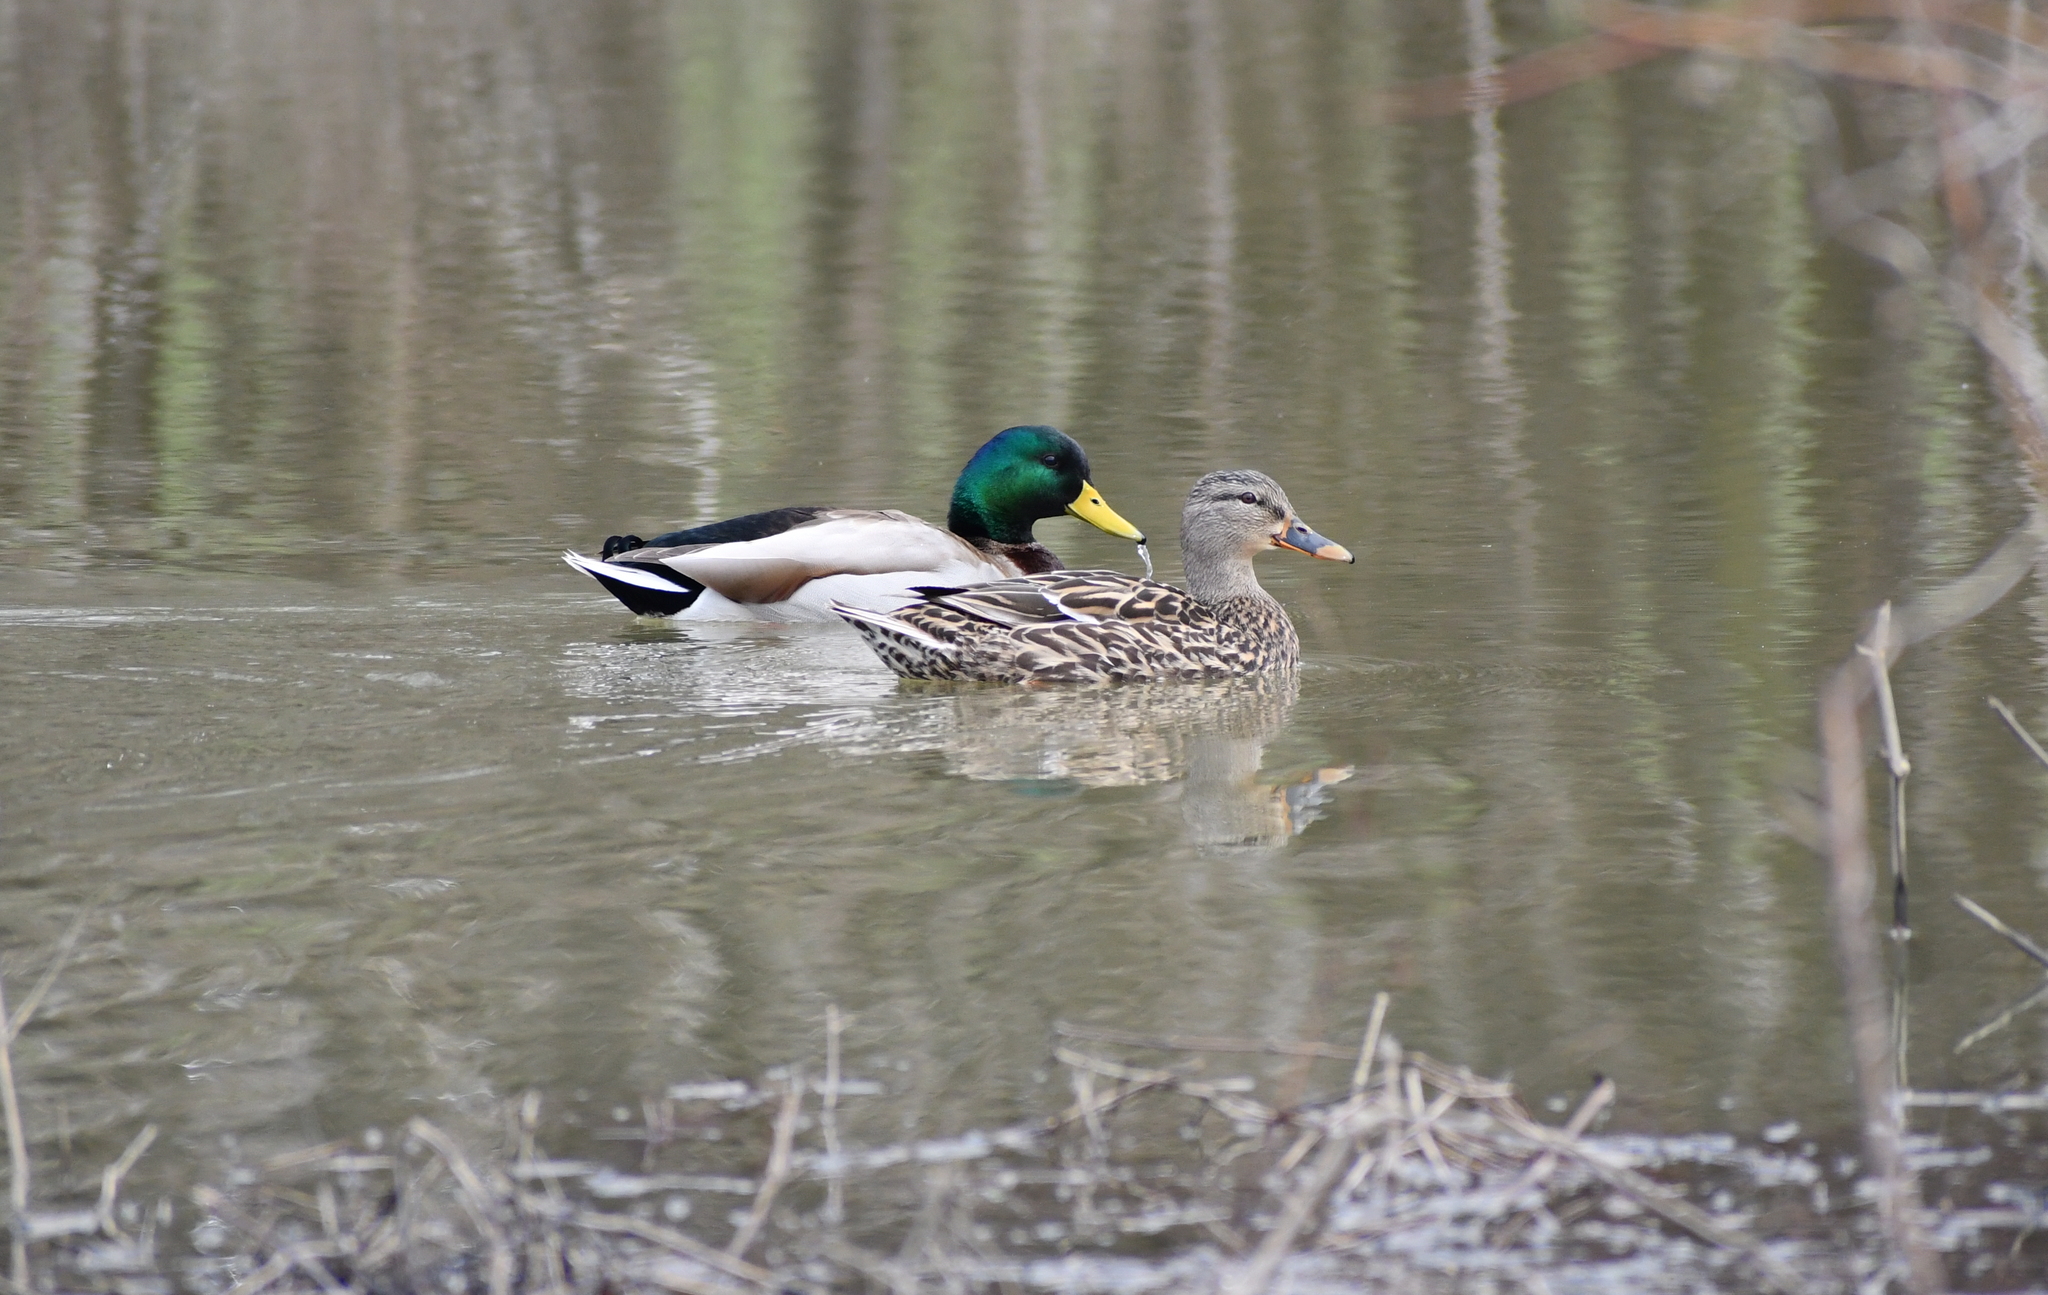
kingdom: Animalia
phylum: Chordata
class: Aves
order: Anseriformes
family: Anatidae
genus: Anas
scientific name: Anas platyrhynchos
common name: Mallard
